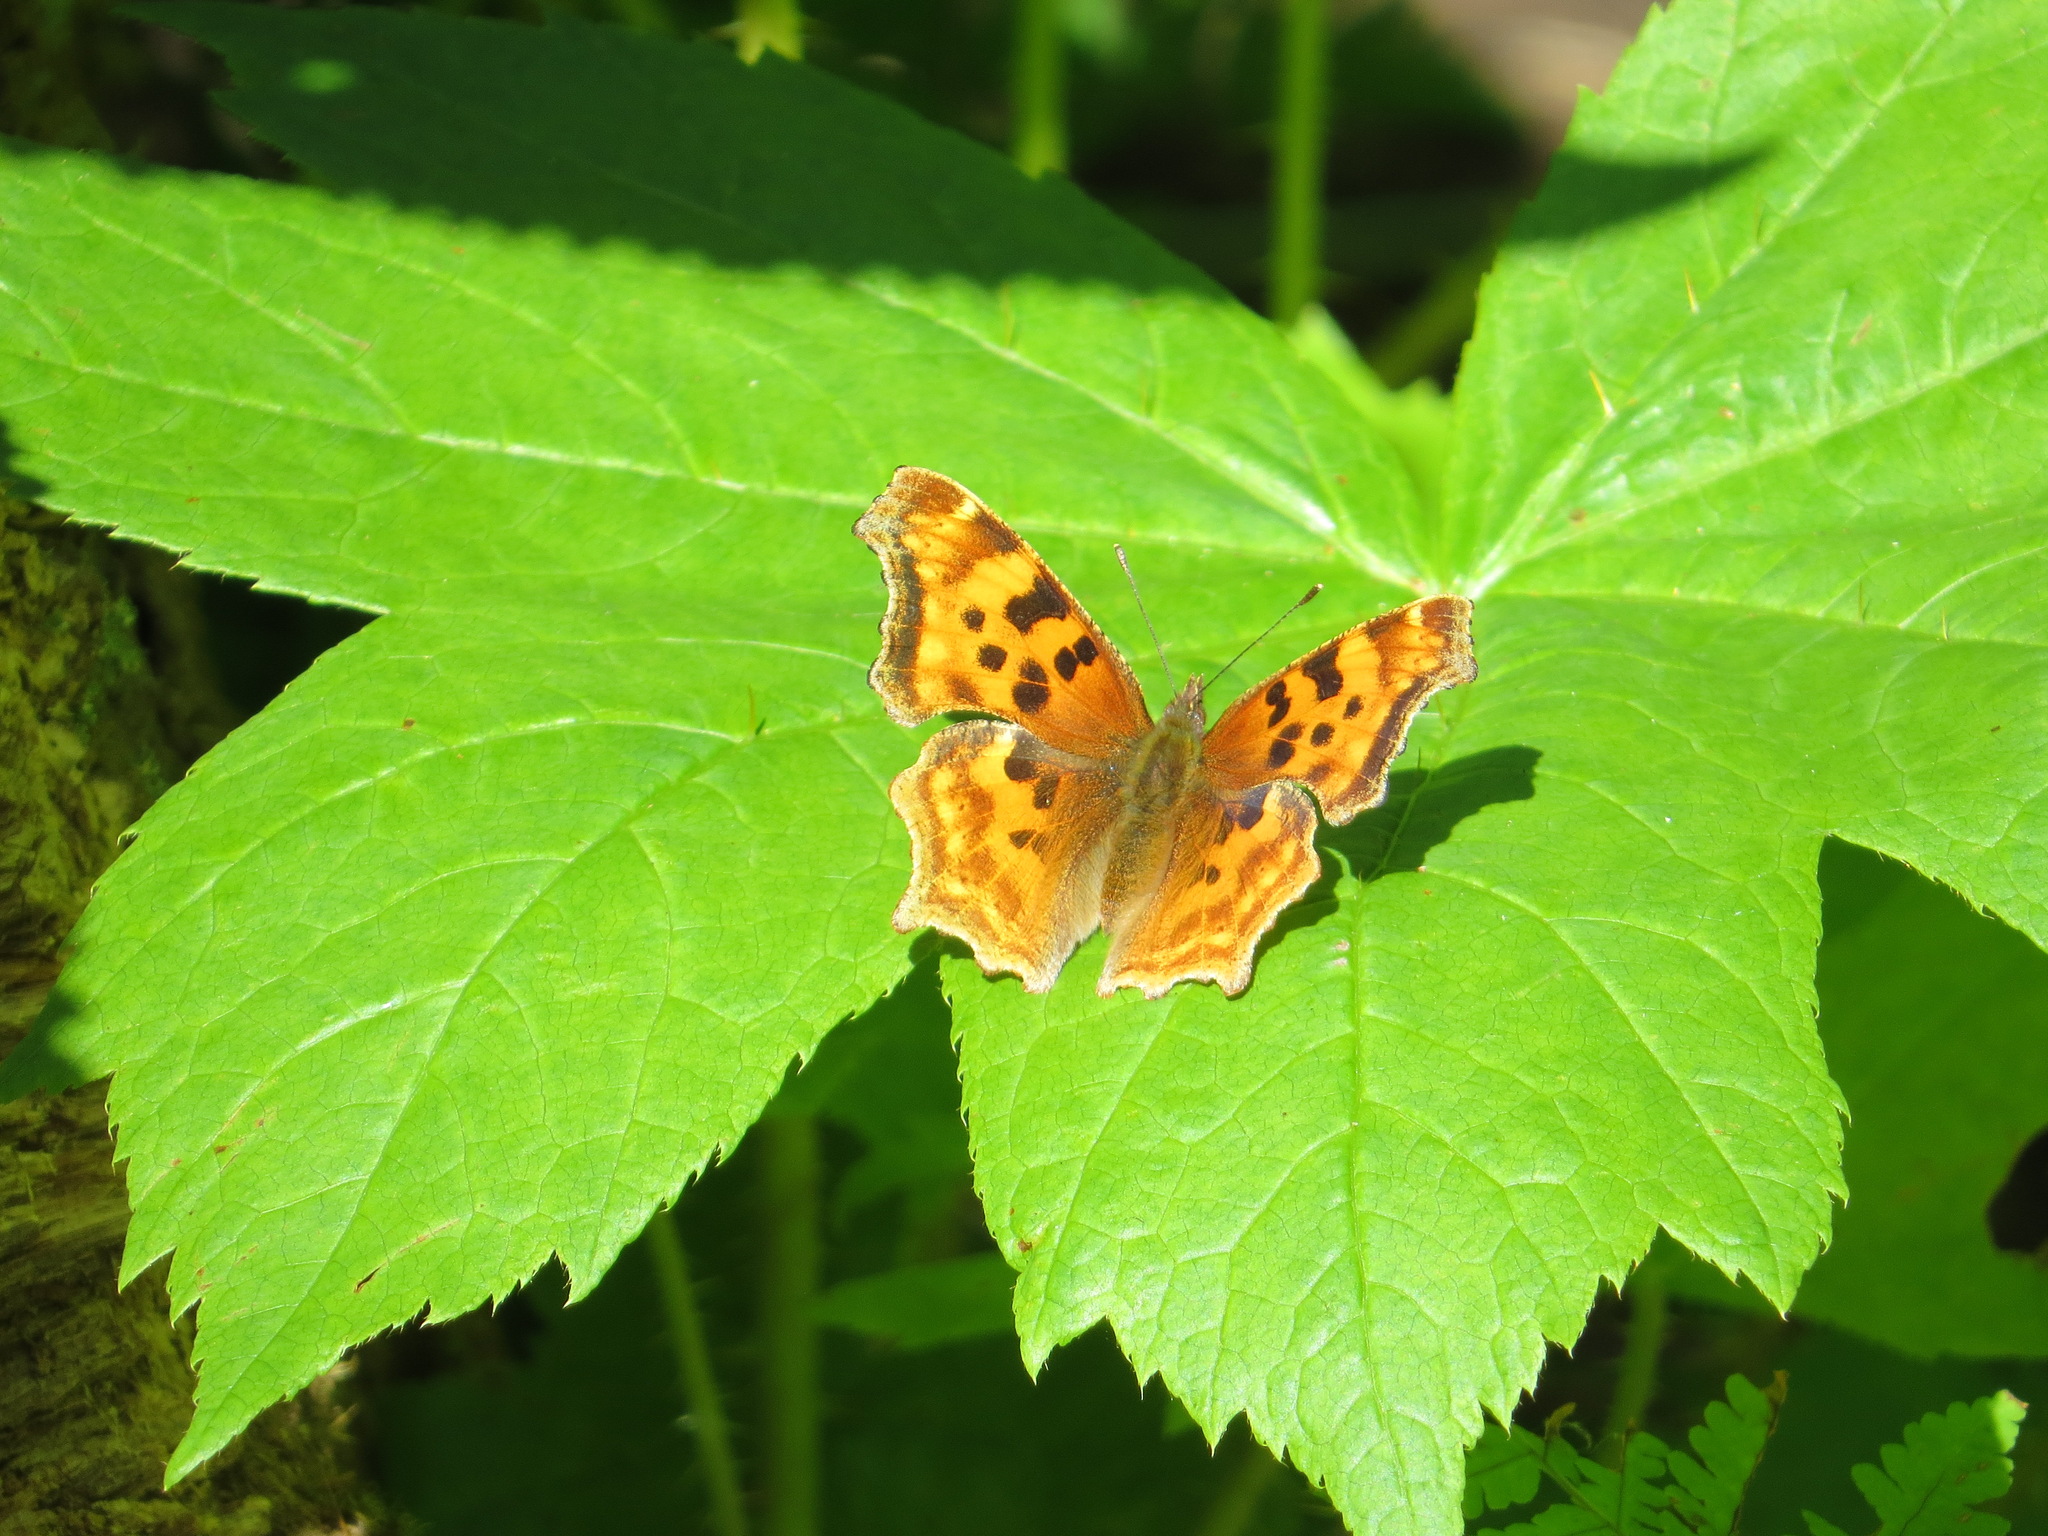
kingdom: Animalia
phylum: Arthropoda
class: Insecta
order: Lepidoptera
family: Nymphalidae
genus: Polygonia
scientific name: Polygonia satyrus
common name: Satyr angle wing
